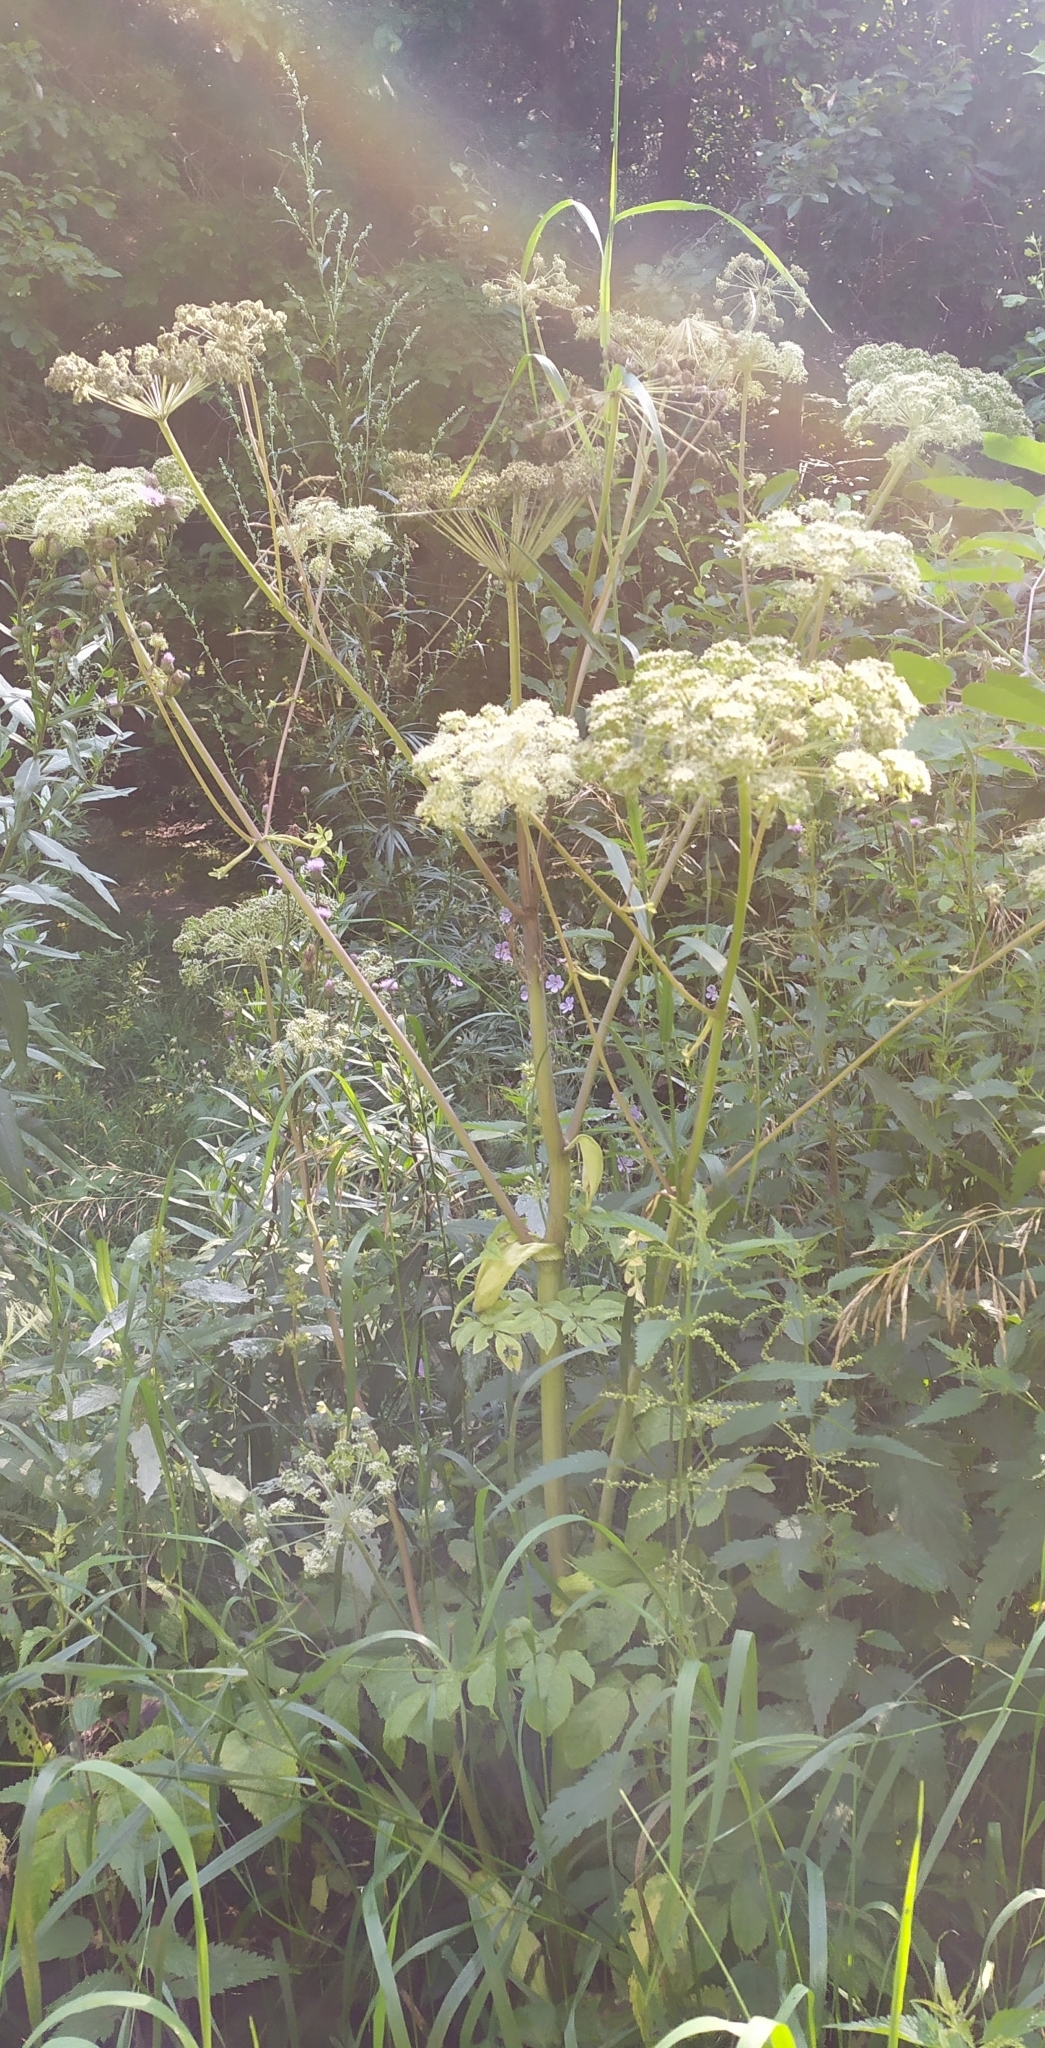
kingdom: Plantae
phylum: Tracheophyta
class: Magnoliopsida
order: Apiales
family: Apiaceae
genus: Angelica
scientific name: Angelica sylvestris
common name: Wild angelica
